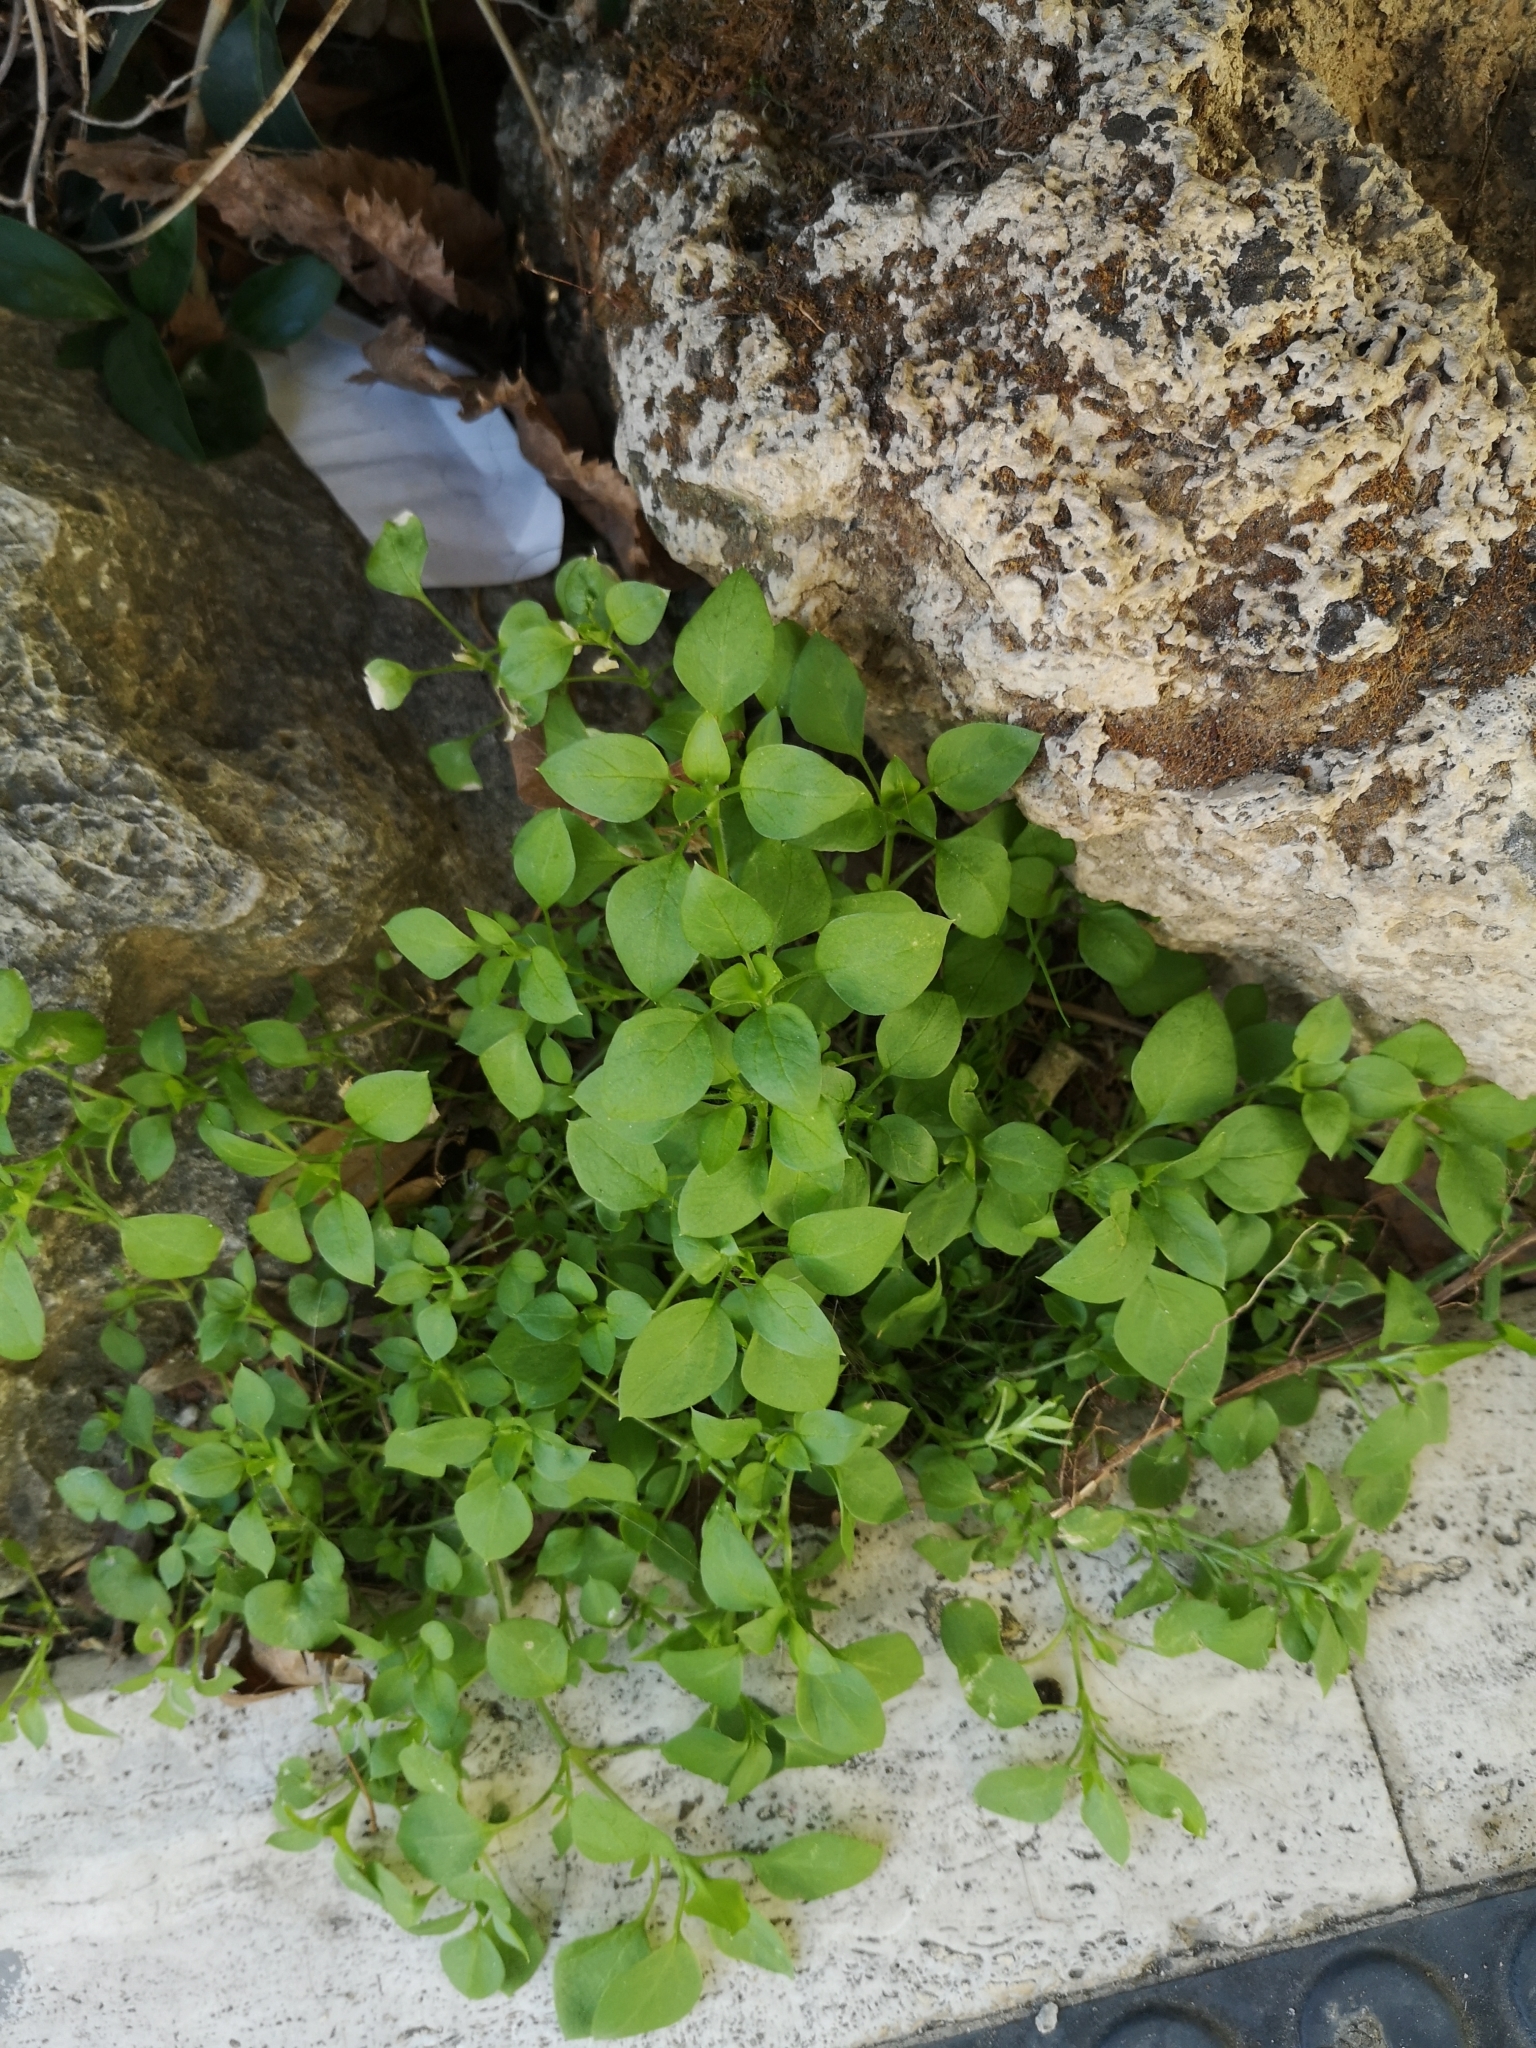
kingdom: Plantae
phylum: Tracheophyta
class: Magnoliopsida
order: Caryophyllales
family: Caryophyllaceae
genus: Stellaria
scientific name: Stellaria media
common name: Common chickweed
